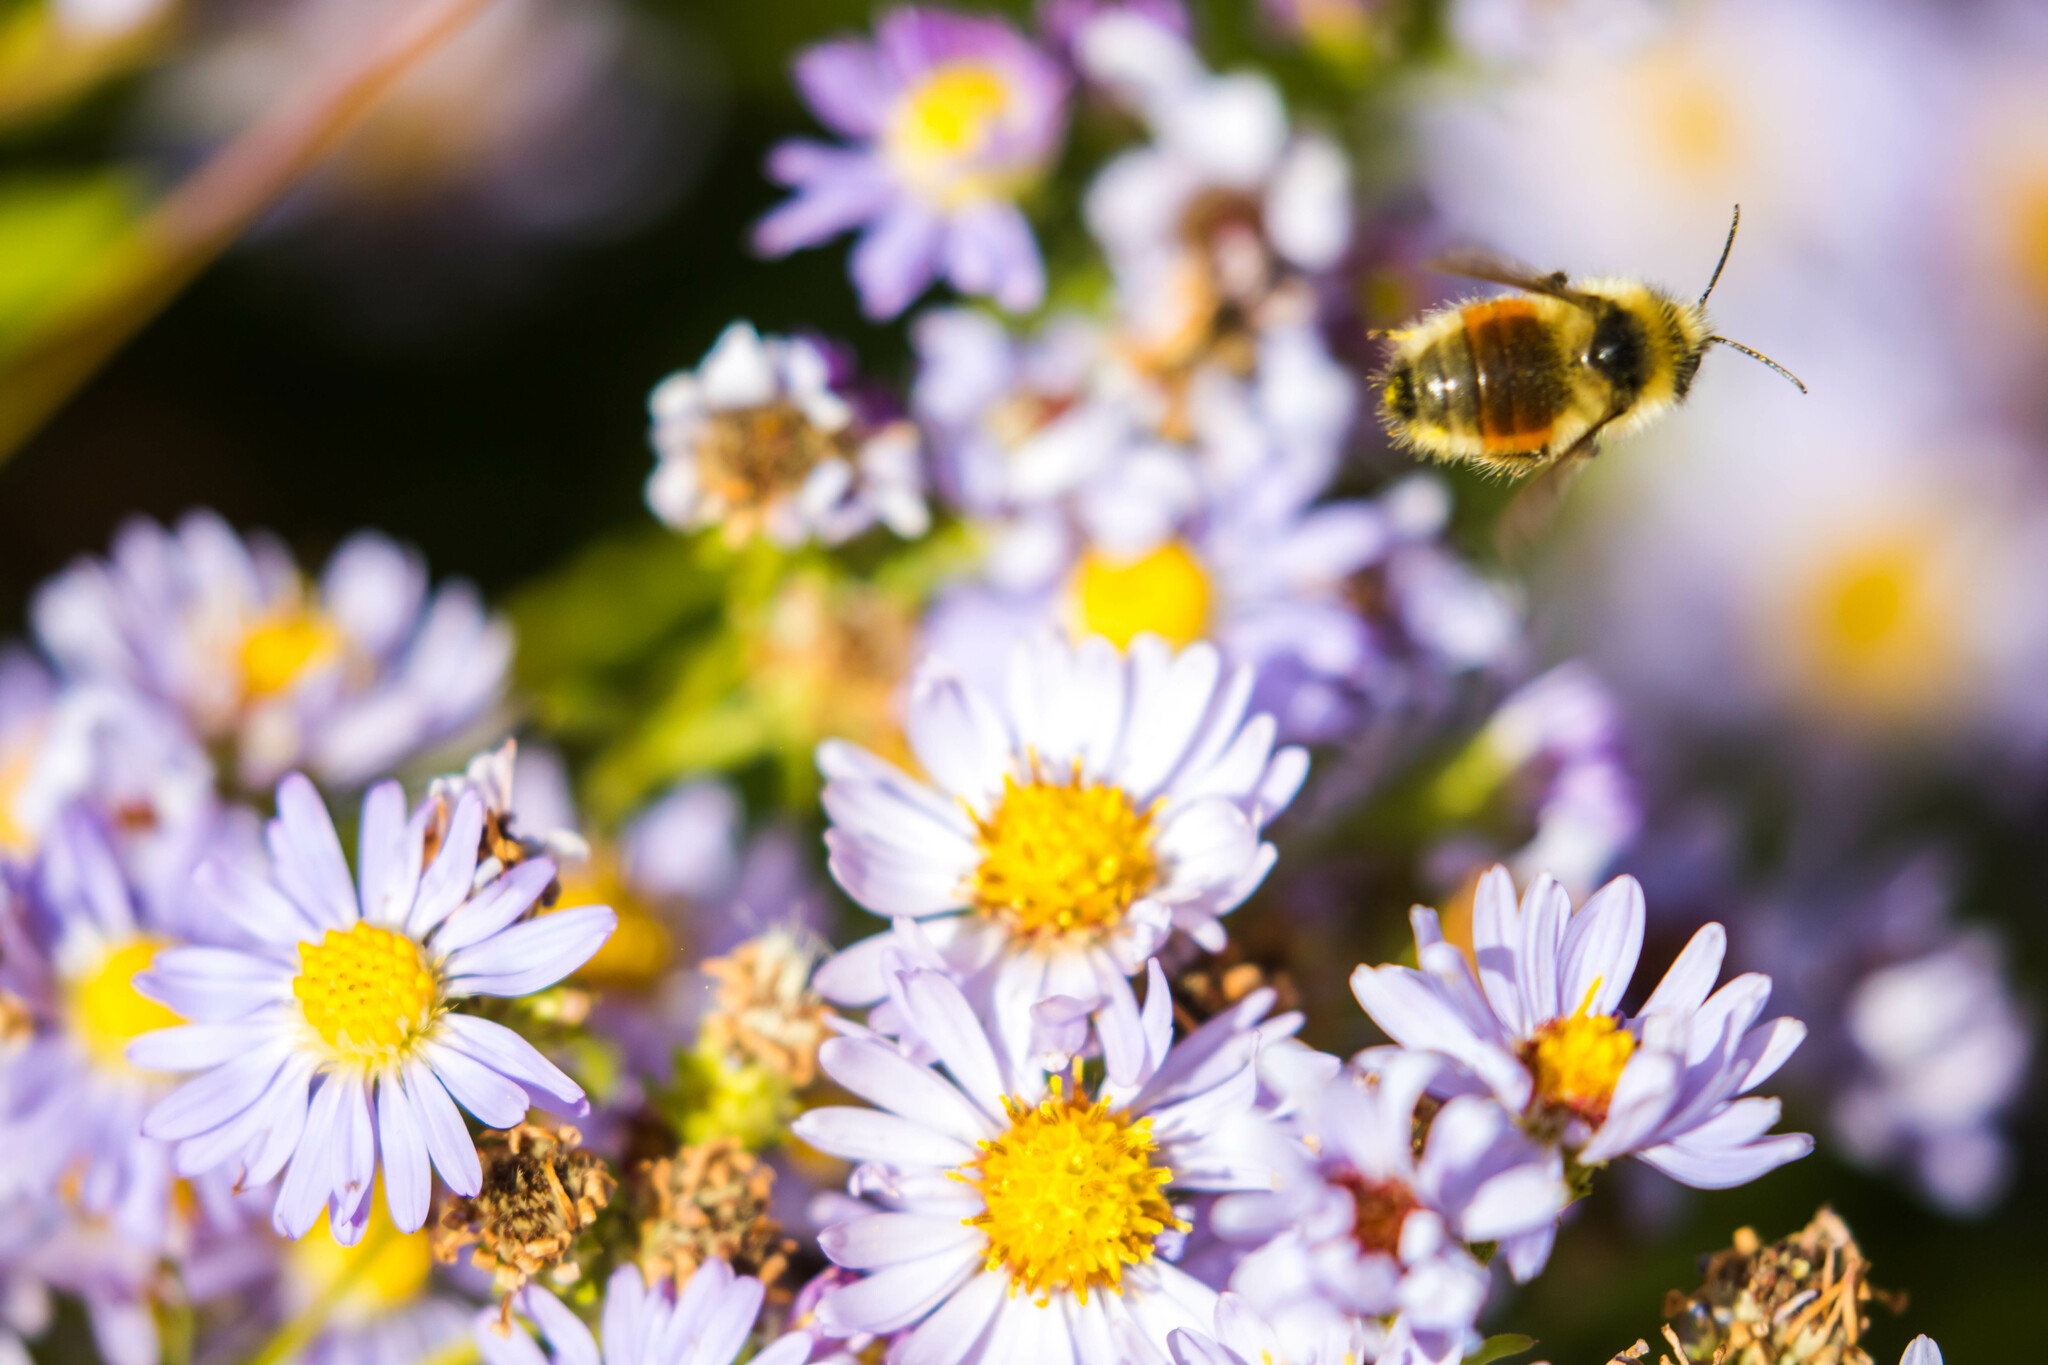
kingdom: Animalia
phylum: Arthropoda
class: Insecta
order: Hymenoptera
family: Apidae
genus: Bombus
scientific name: Bombus huntii
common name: Hunt bumble bee
